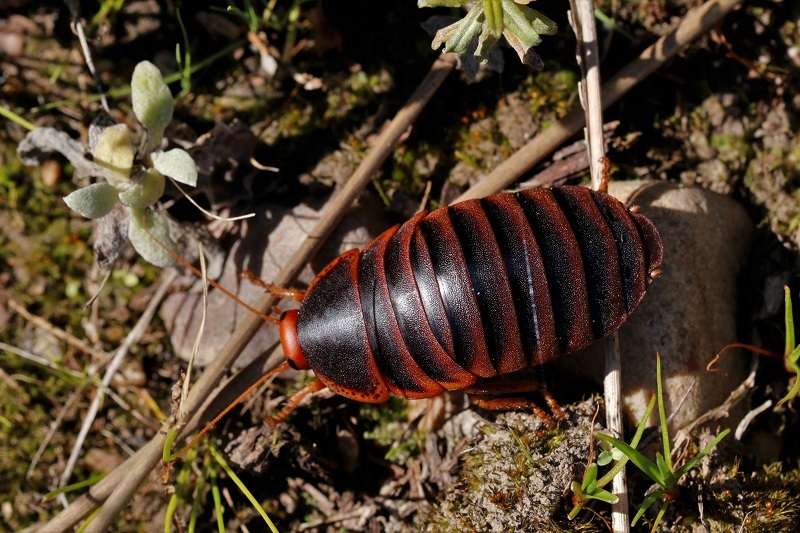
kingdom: Animalia
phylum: Arthropoda
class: Insecta
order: Blattodea
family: Blaberidae
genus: Aptera
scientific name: Aptera fusca
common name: Cape mountain cockroach
